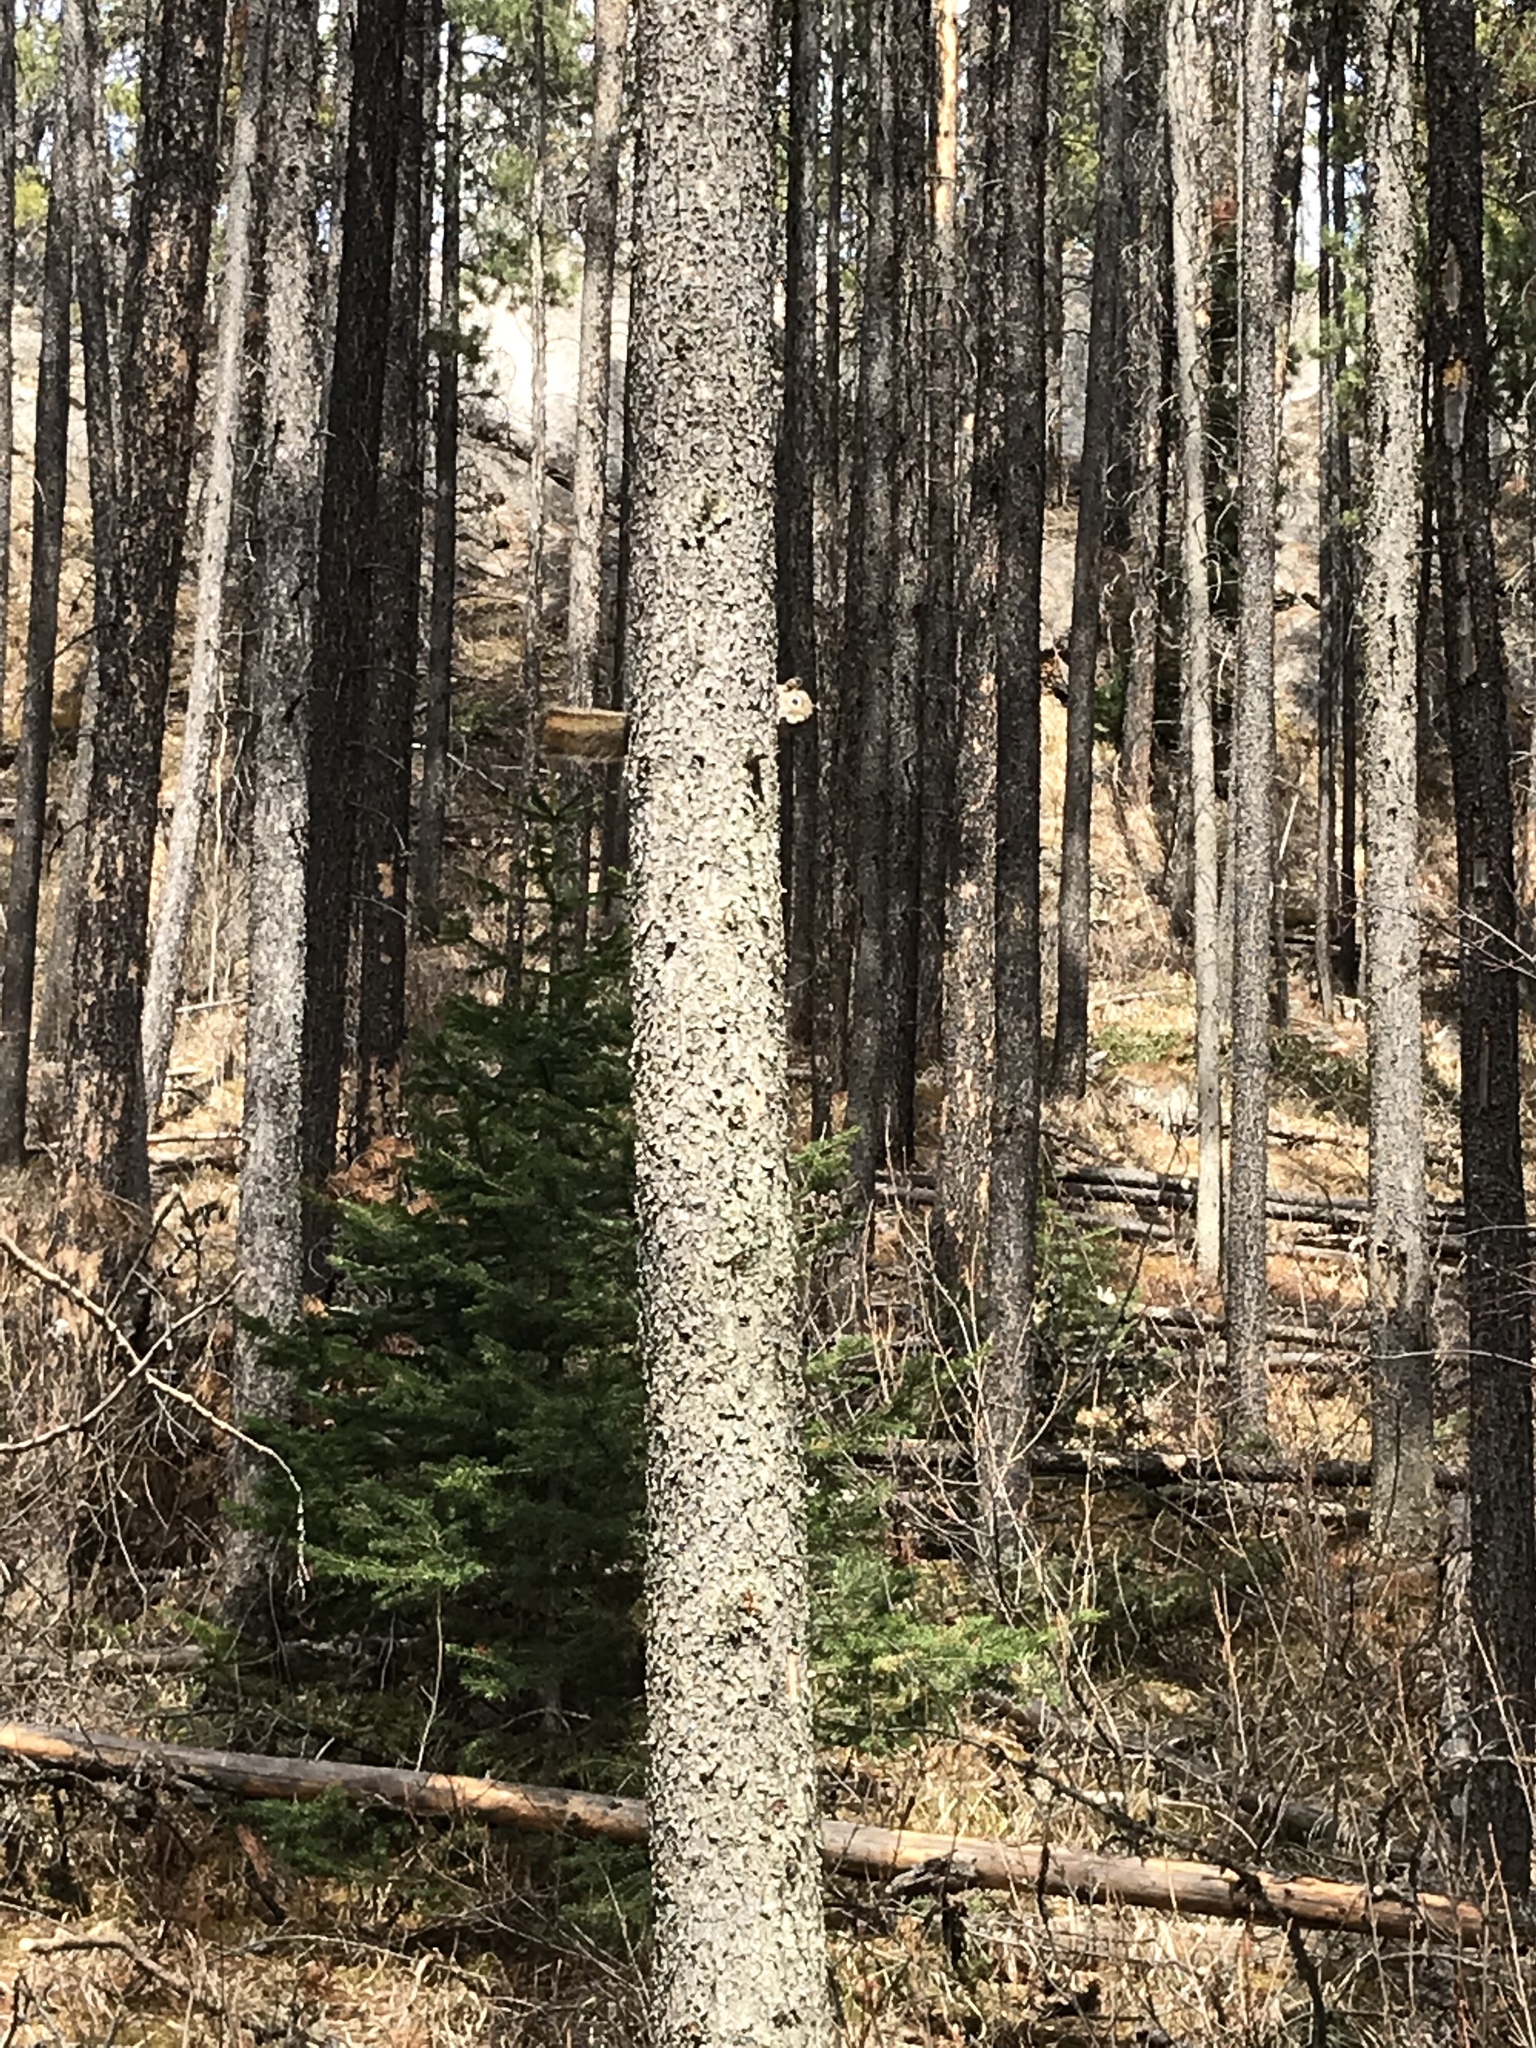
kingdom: Animalia
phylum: Chordata
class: Mammalia
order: Rodentia
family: Sciuridae
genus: Tamiasciurus
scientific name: Tamiasciurus hudsonicus
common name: Red squirrel
